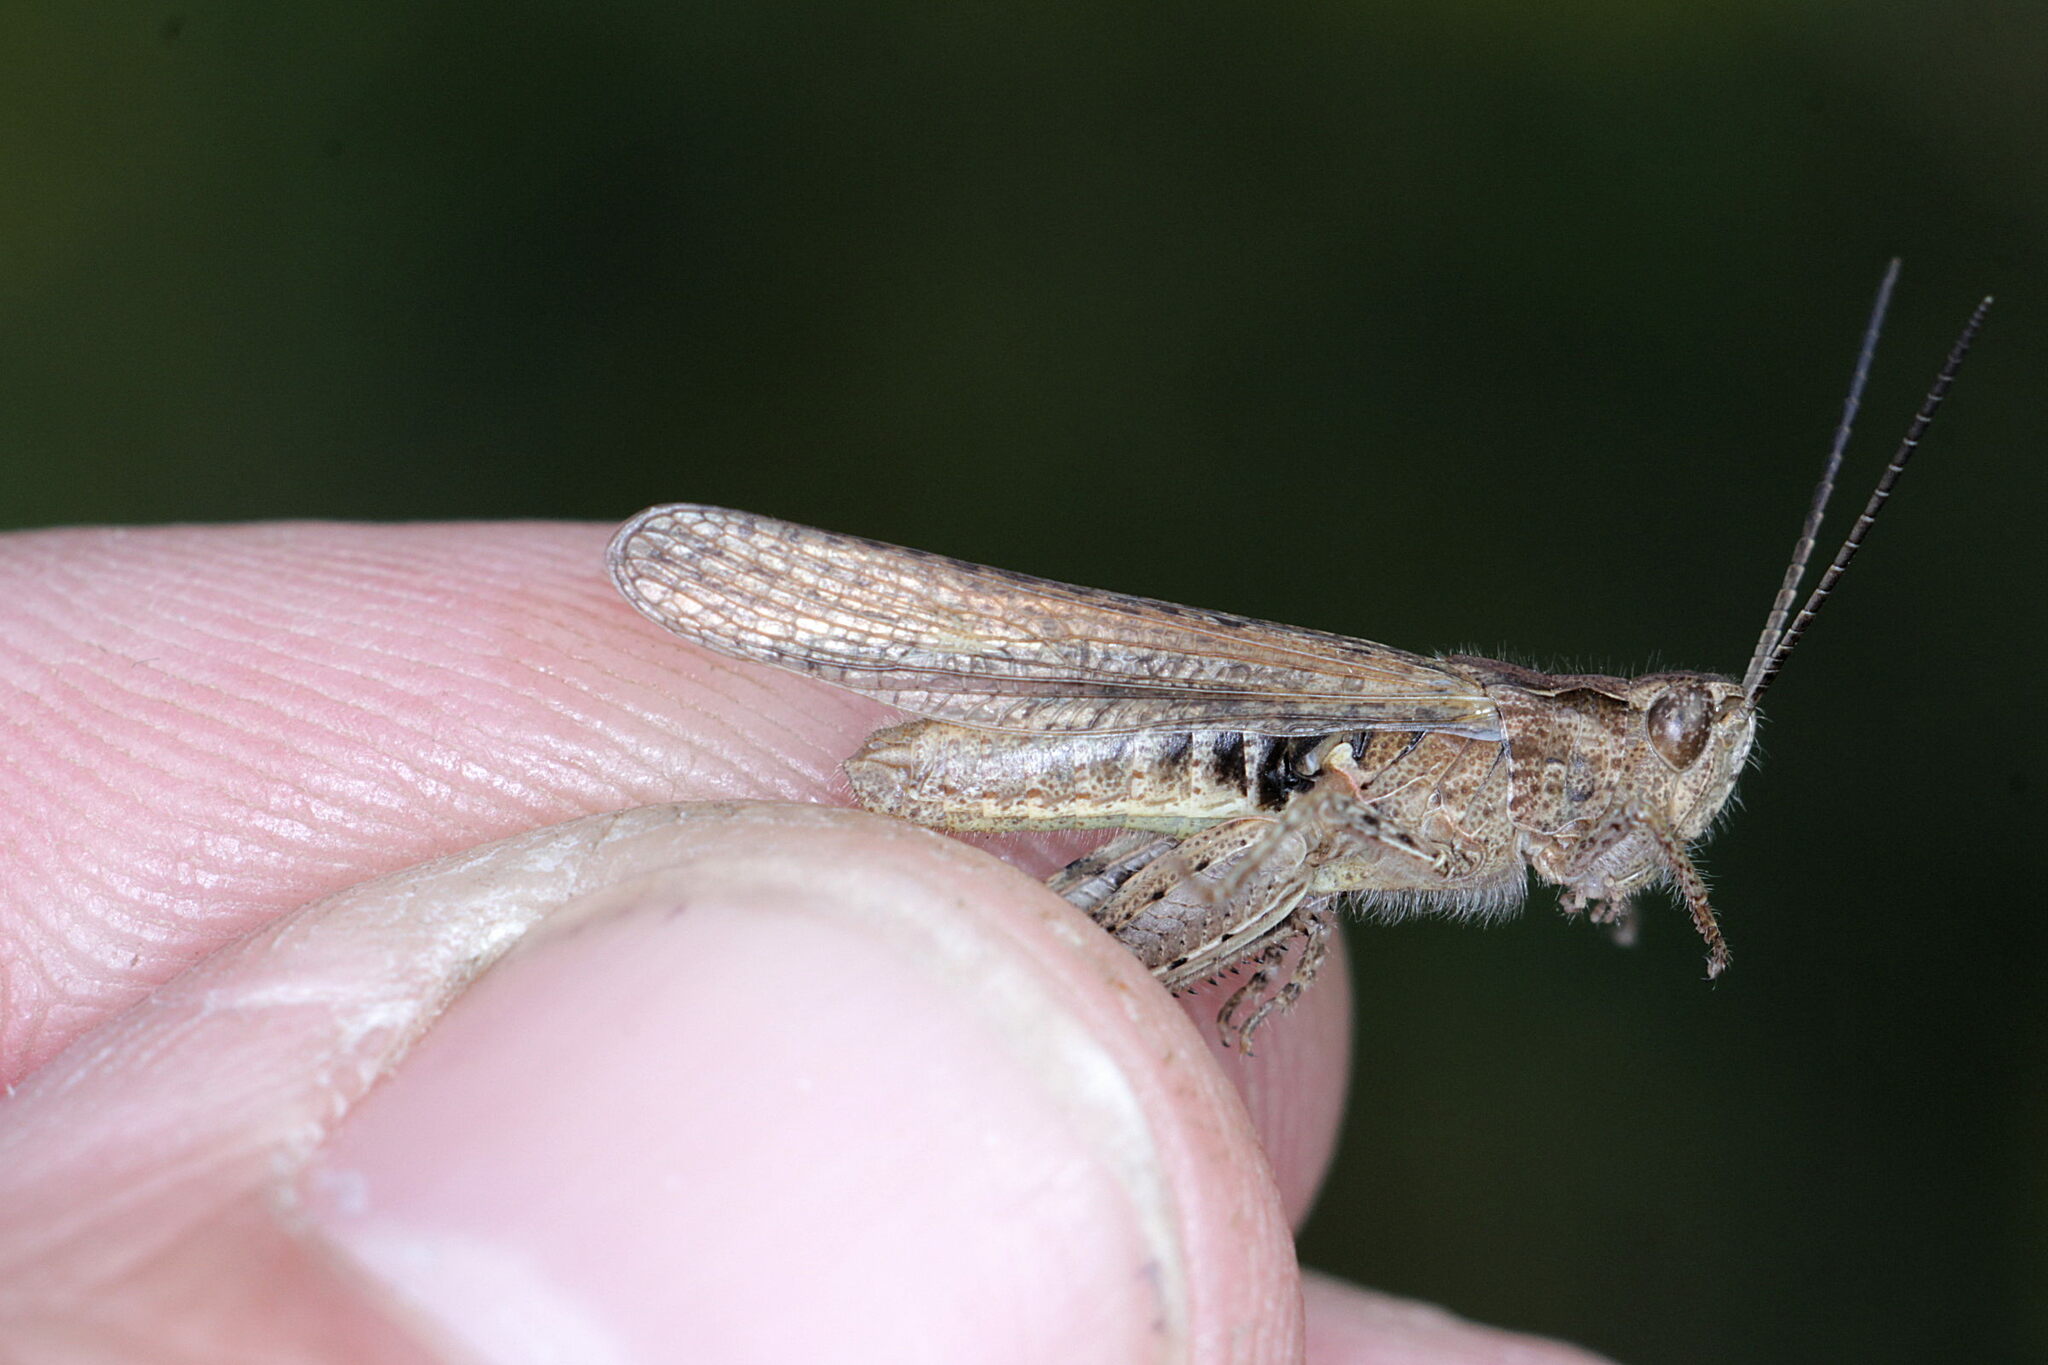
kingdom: Animalia
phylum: Arthropoda
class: Insecta
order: Orthoptera
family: Acrididae
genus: Chorthippus
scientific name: Chorthippus brunneus
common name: Field grasshopper
